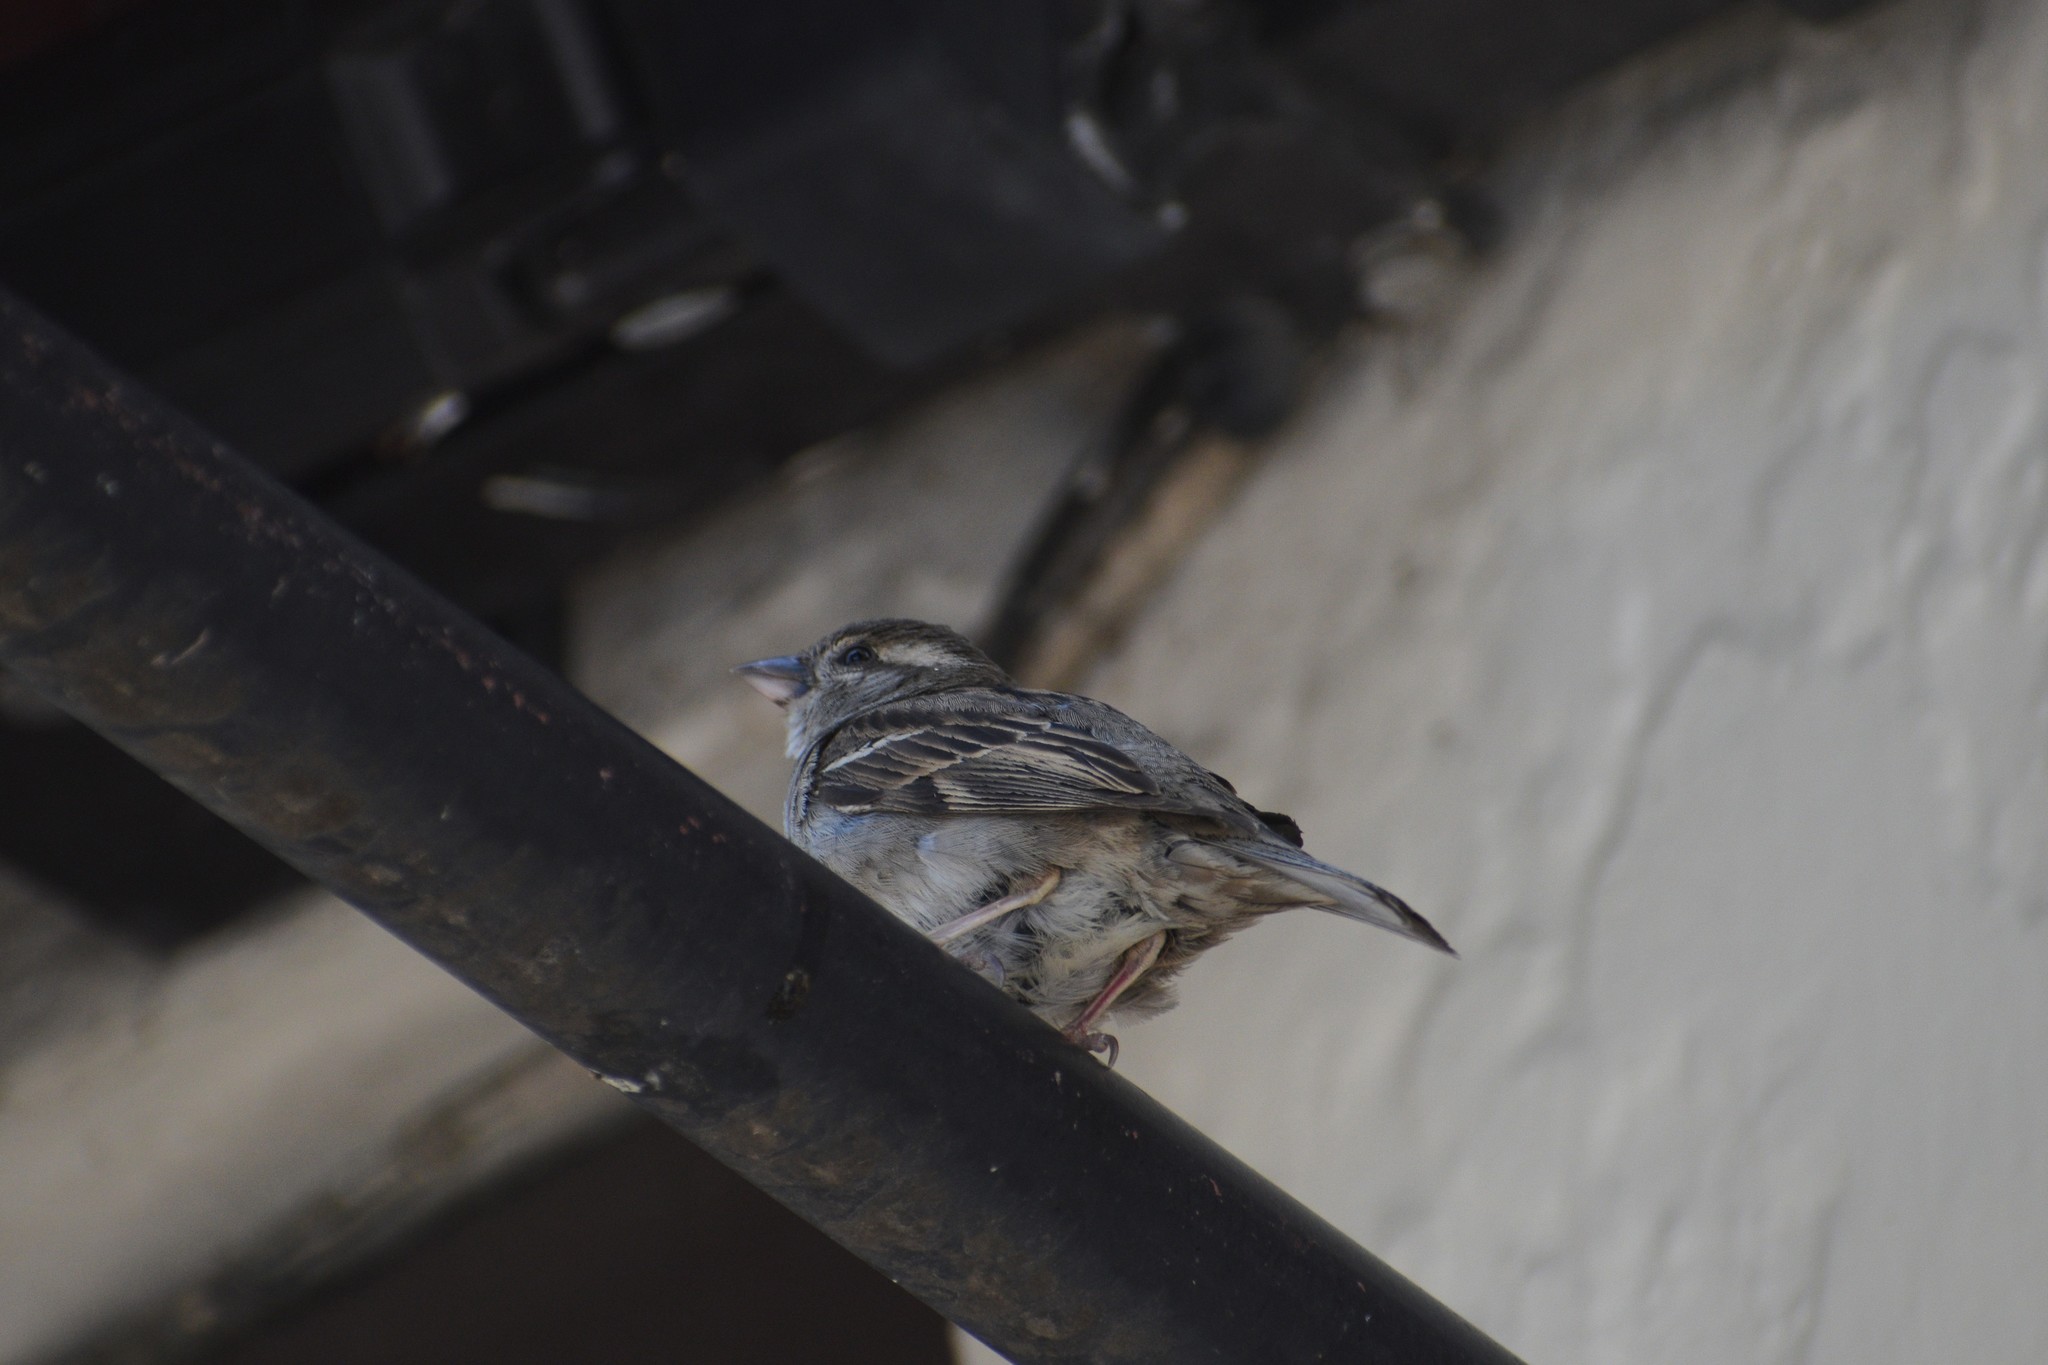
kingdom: Animalia
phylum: Chordata
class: Aves
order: Passeriformes
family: Passeridae
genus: Passer
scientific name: Passer domesticus
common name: House sparrow
